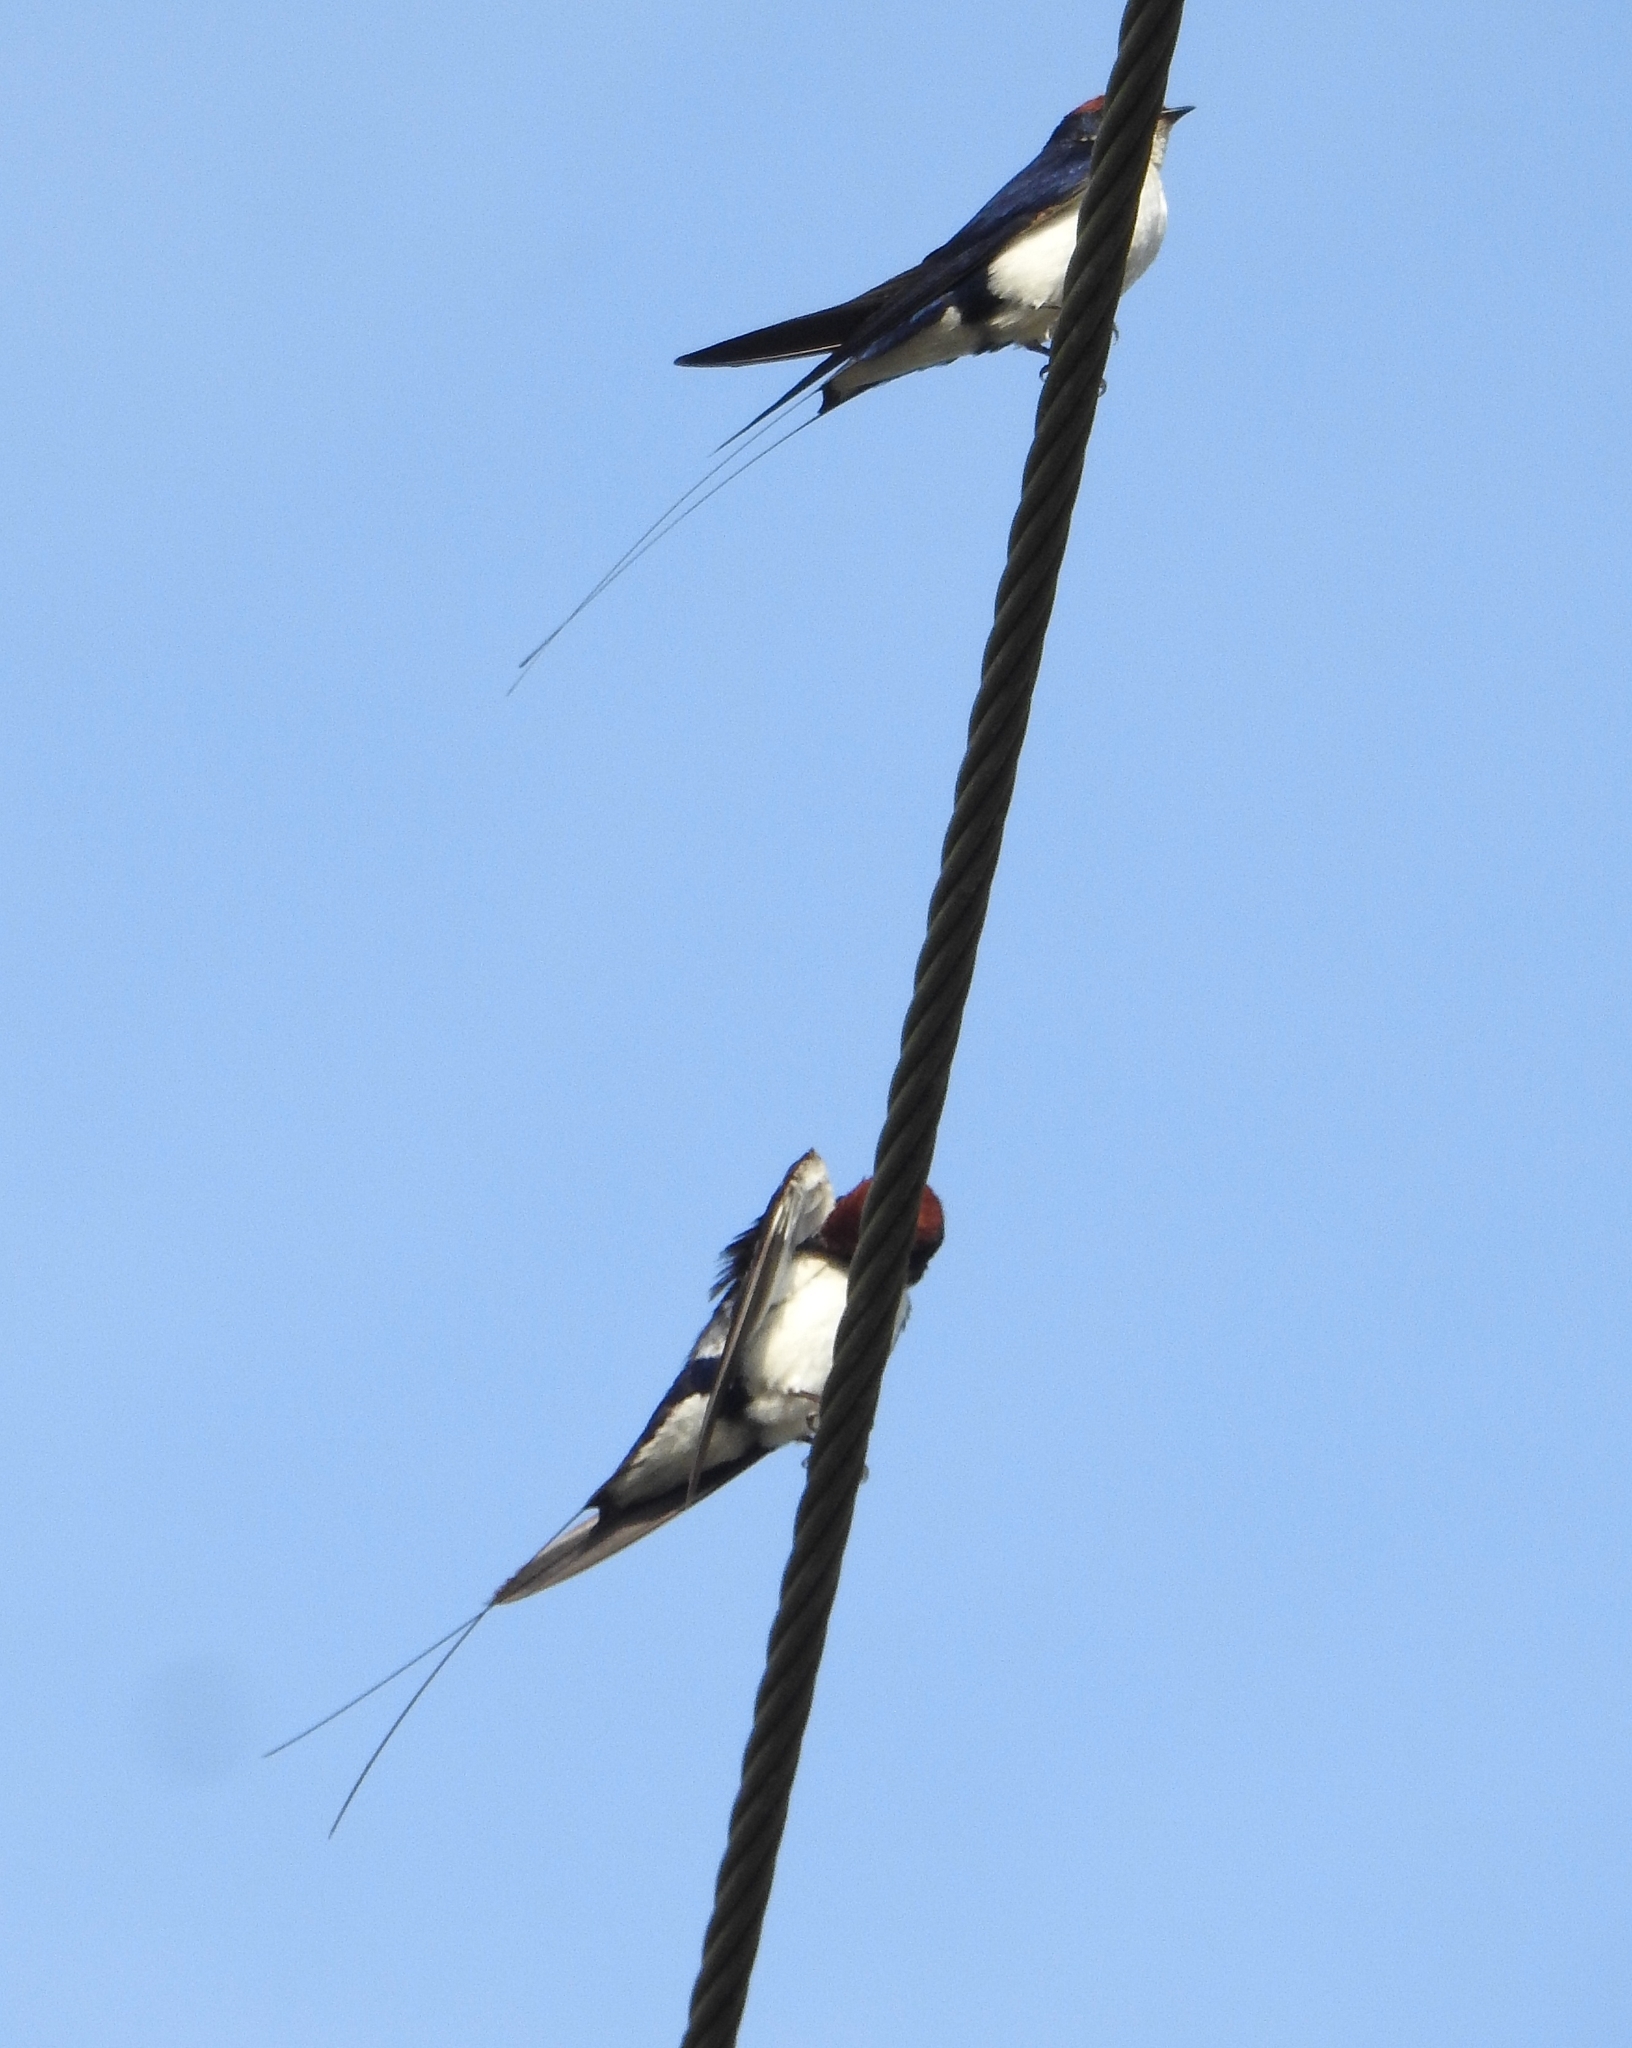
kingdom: Animalia
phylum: Chordata
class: Aves
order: Passeriformes
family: Hirundinidae
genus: Hirundo
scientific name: Hirundo smithii
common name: Wire-tailed swallow
